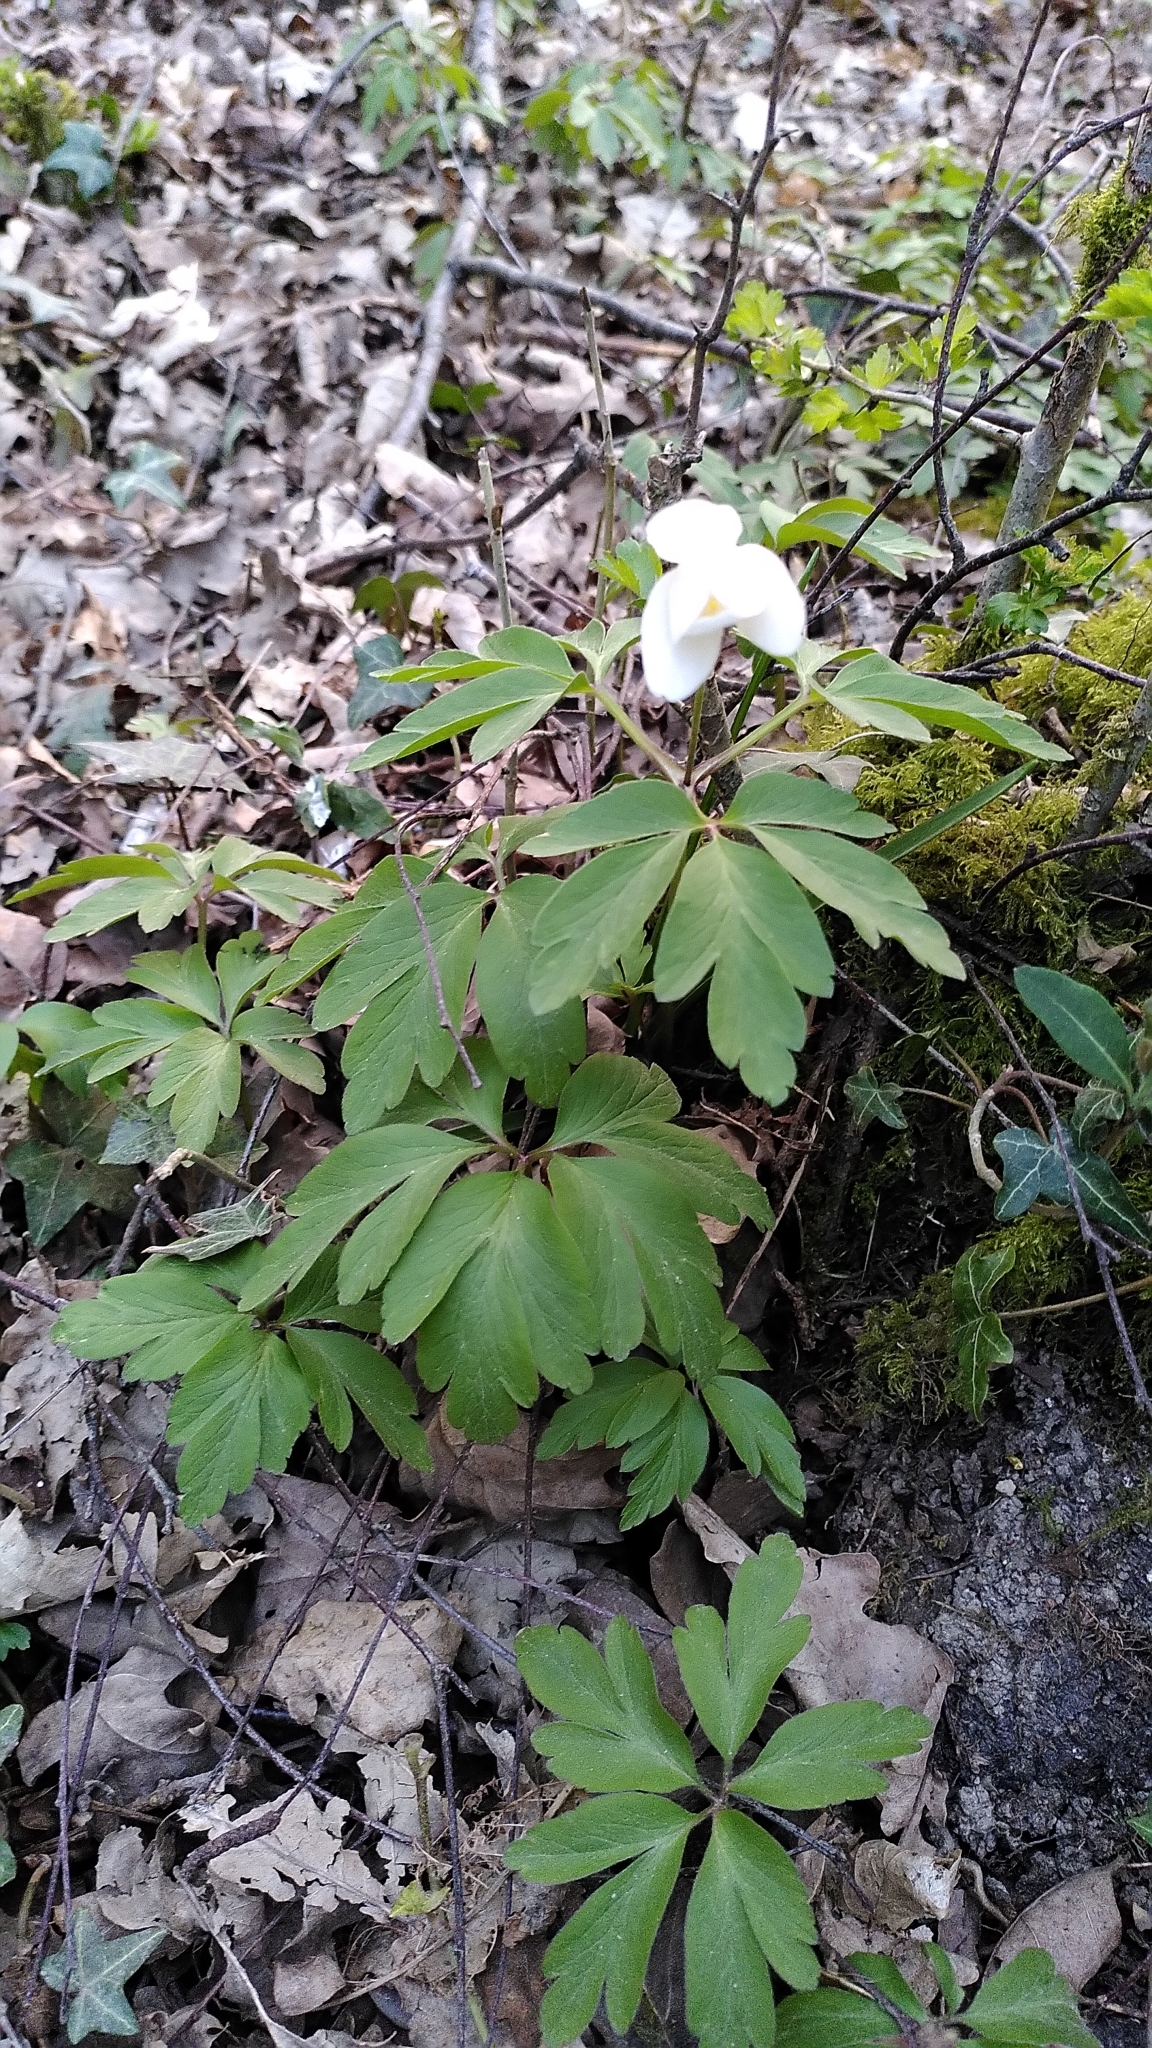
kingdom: Plantae
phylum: Tracheophyta
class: Magnoliopsida
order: Ranunculales
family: Ranunculaceae
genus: Anemone
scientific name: Anemone nemorosa
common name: Wood anemone
